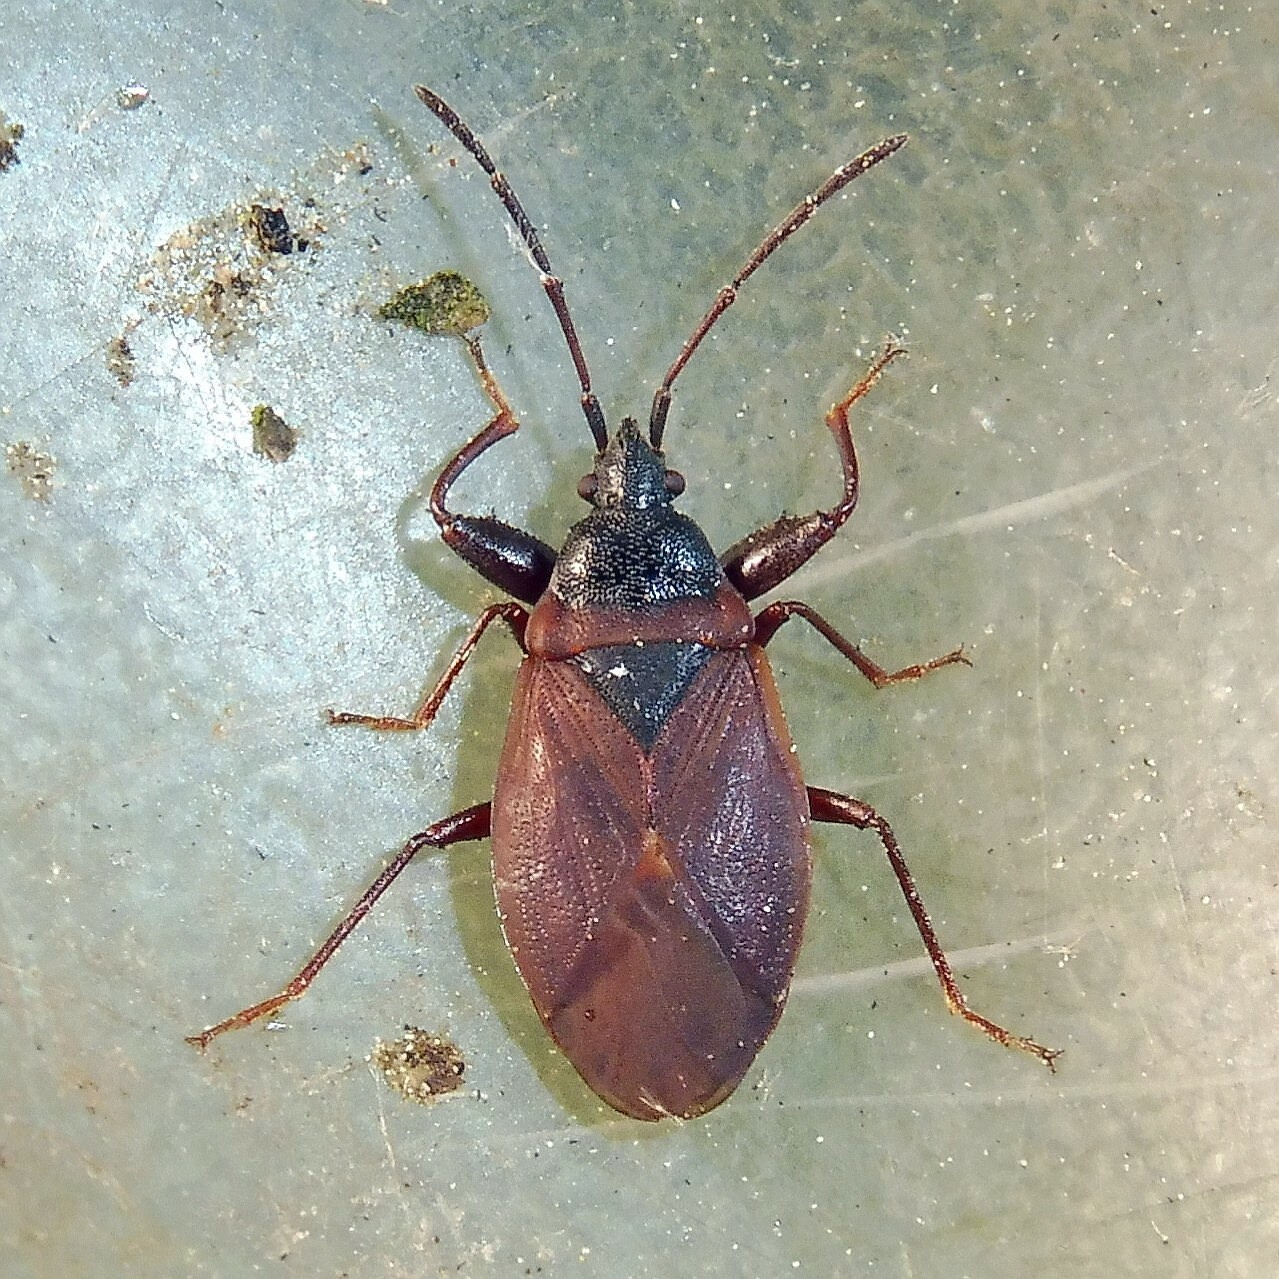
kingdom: Animalia
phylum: Arthropoda
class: Insecta
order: Hemiptera
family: Rhyparochromidae
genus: Gastrodes
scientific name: Gastrodes grossipes
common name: Pine cone bug
